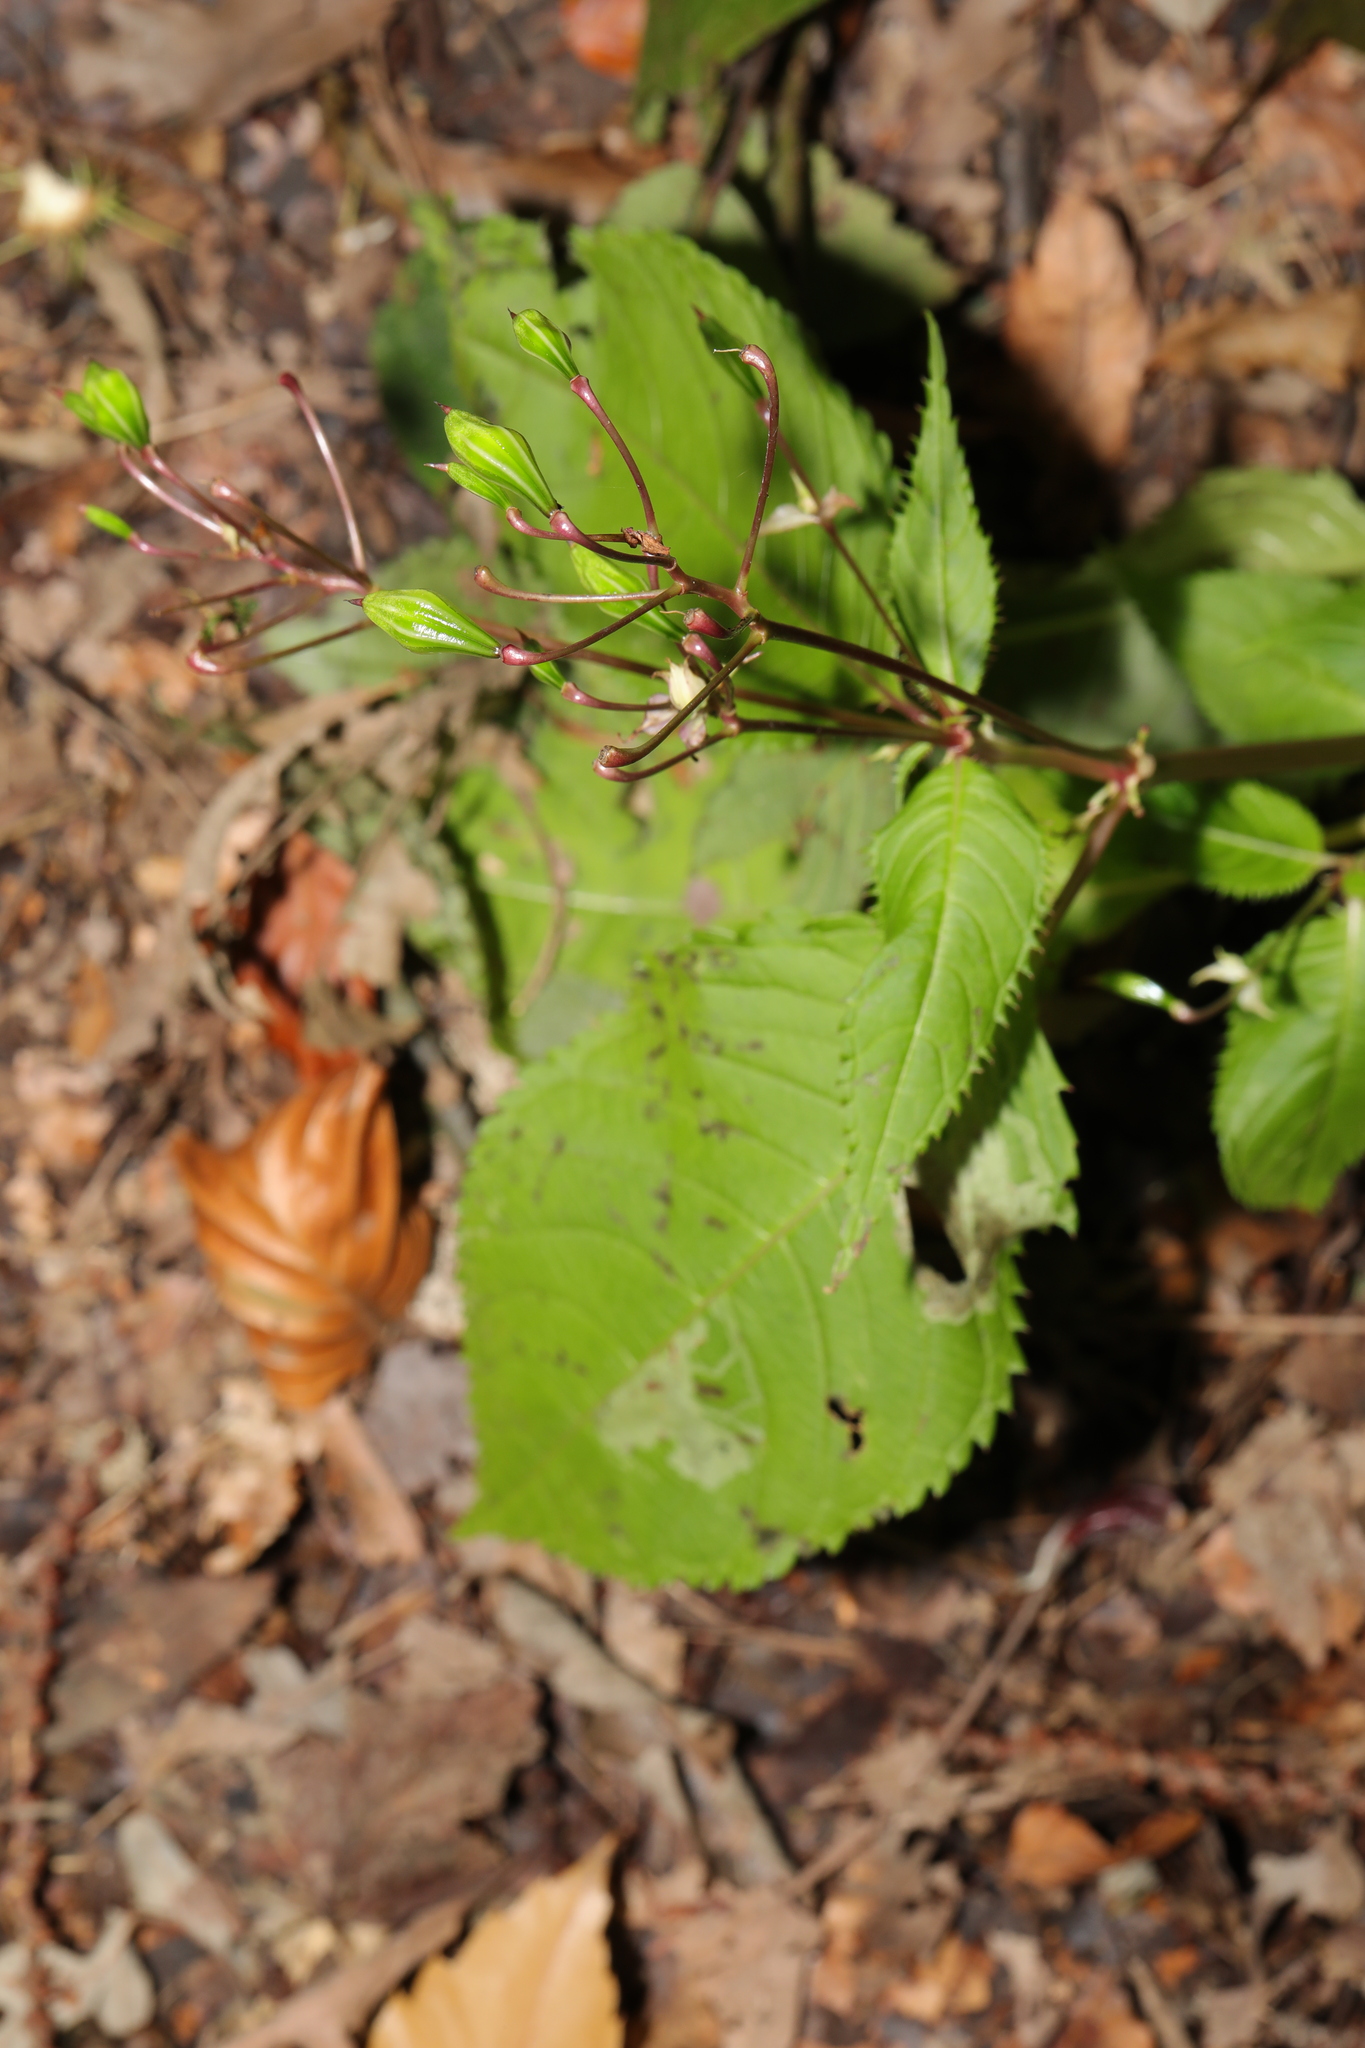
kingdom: Plantae
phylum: Tracheophyta
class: Magnoliopsida
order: Ericales
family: Balsaminaceae
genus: Impatiens
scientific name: Impatiens glandulifera
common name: Himalayan balsam
